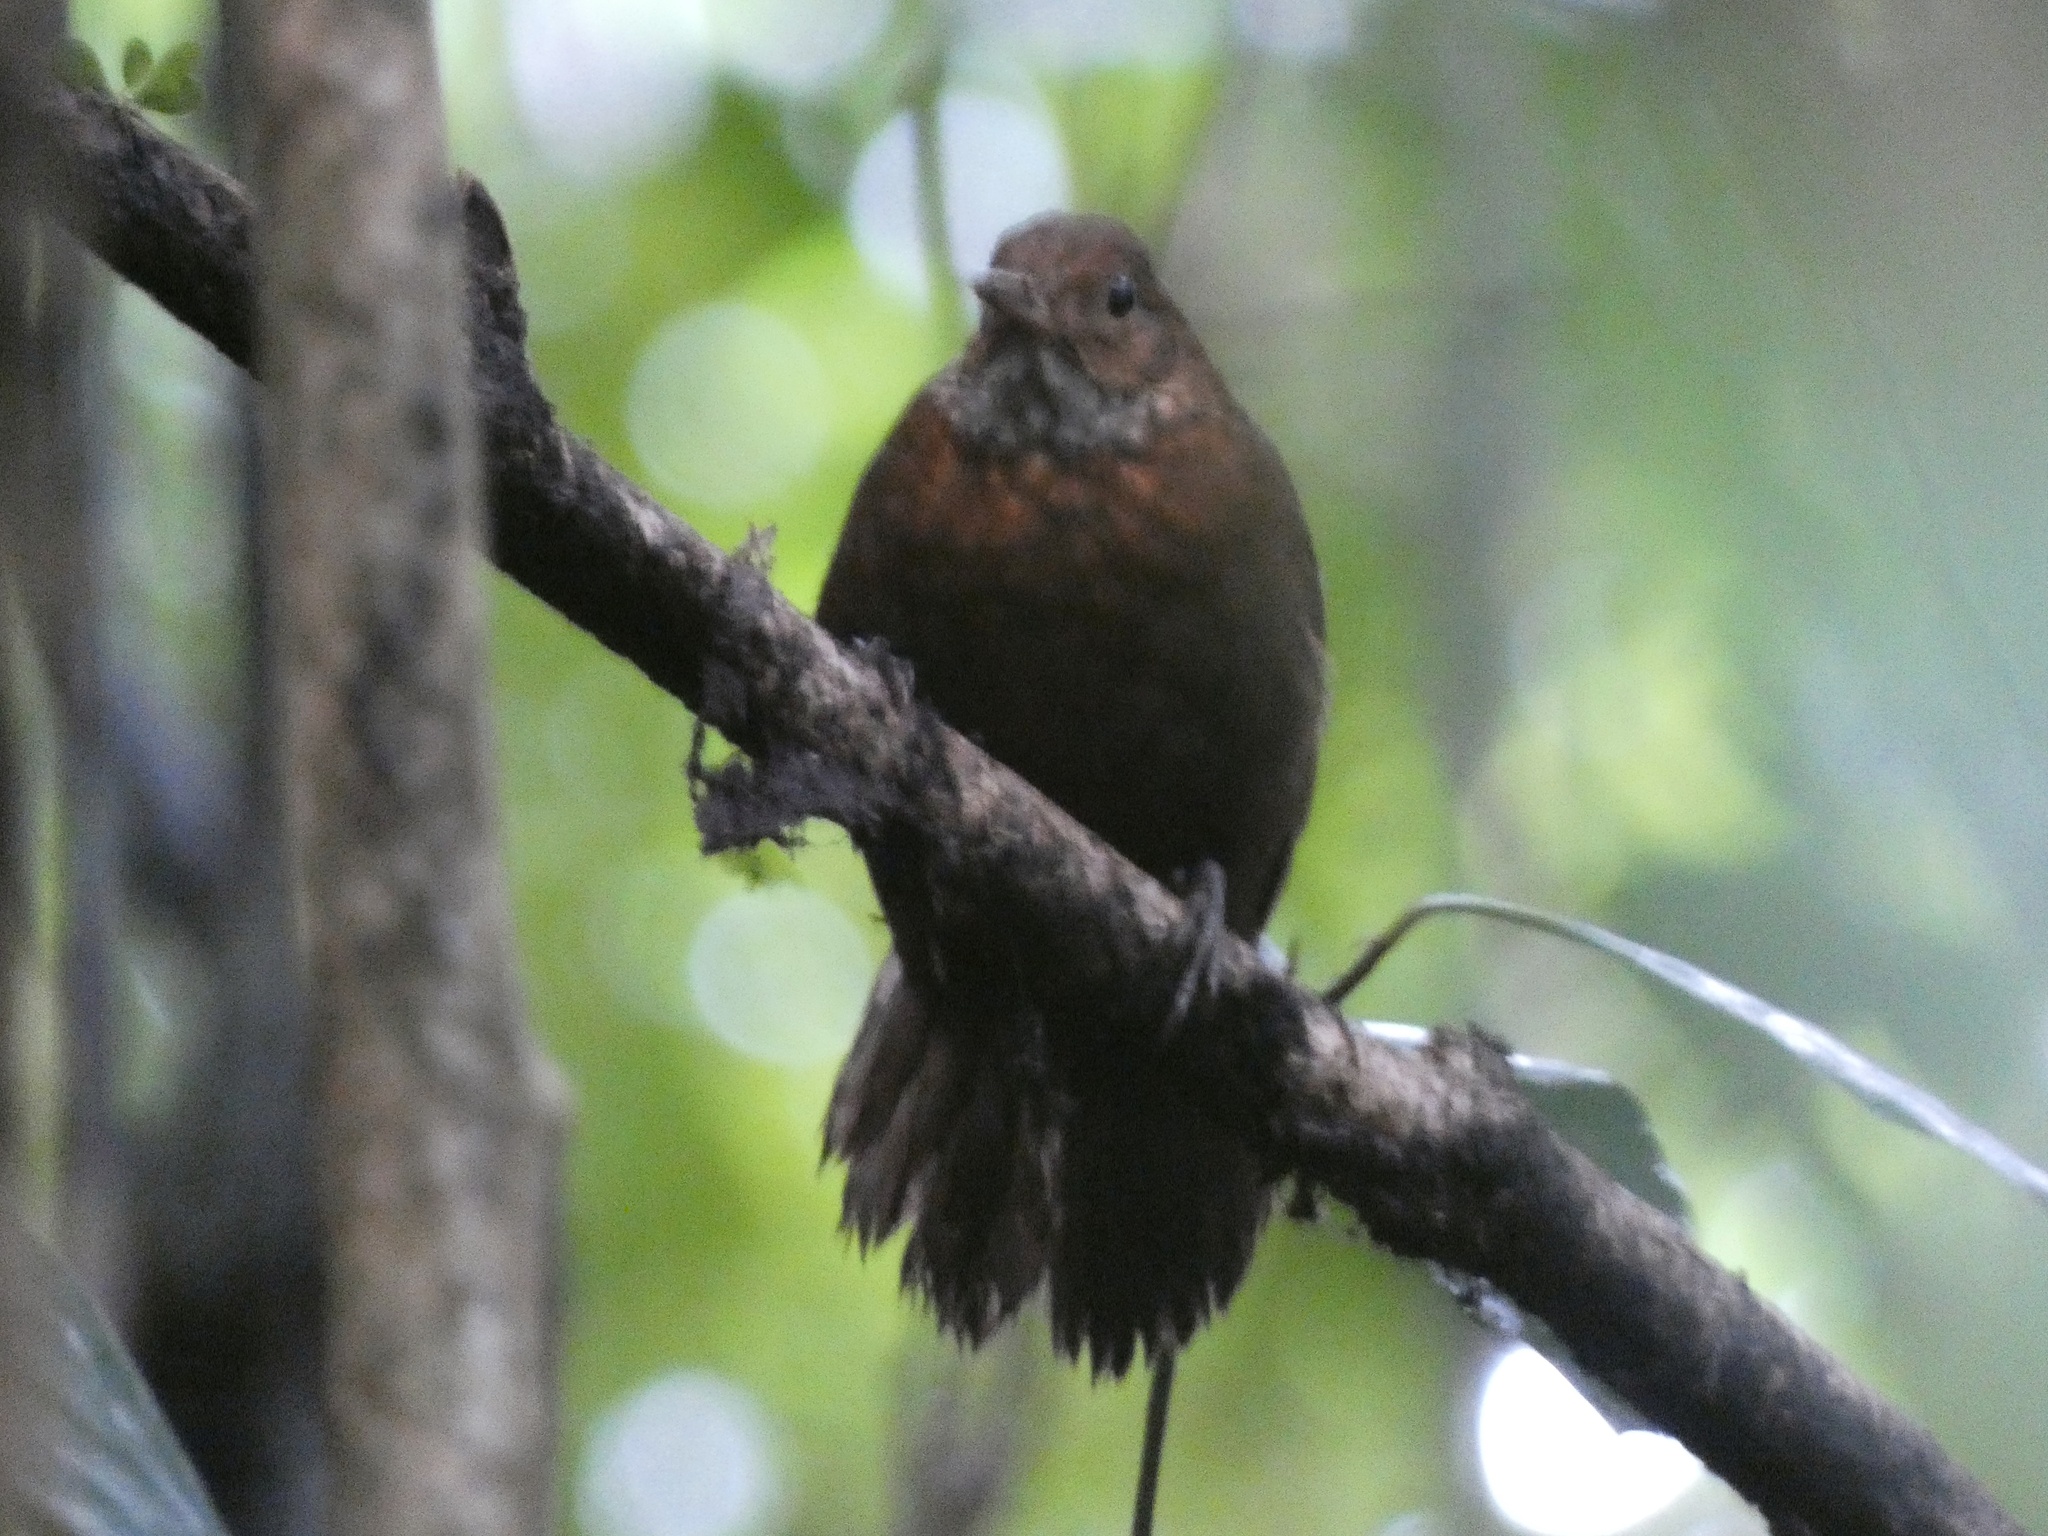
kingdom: Animalia
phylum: Chordata
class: Aves
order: Passeriformes
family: Furnariidae
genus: Sclerurus
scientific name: Sclerurus guatemalensis
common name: Scaly-throated leaftosser
